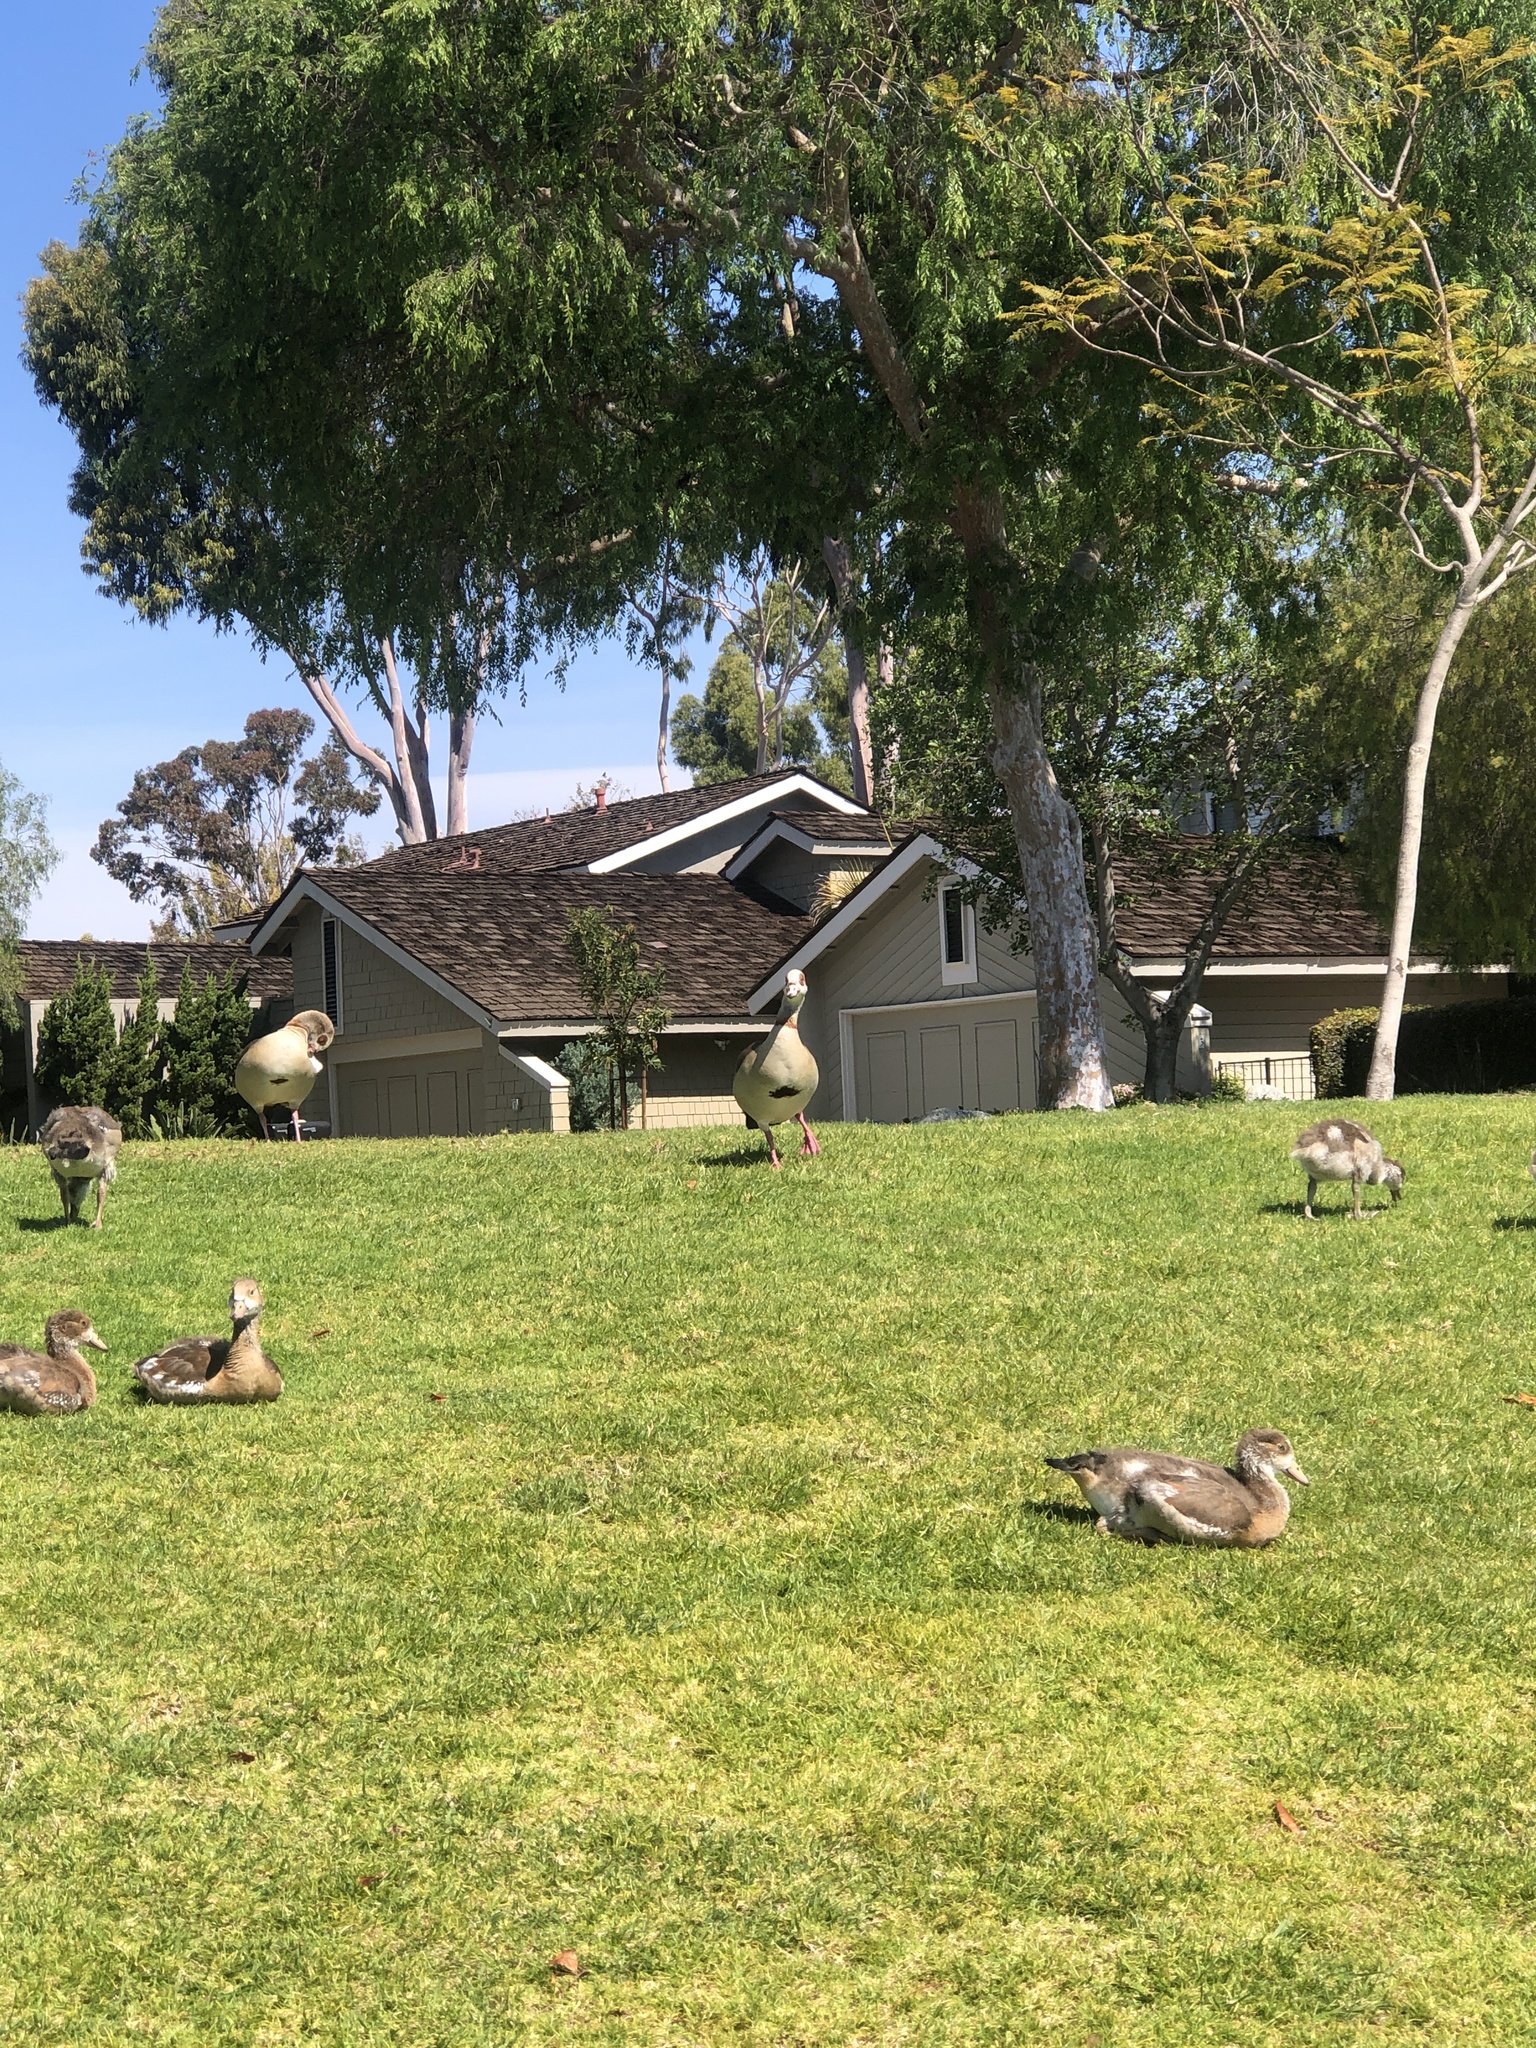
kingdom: Animalia
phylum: Chordata
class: Aves
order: Anseriformes
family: Anatidae
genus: Alopochen
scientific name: Alopochen aegyptiaca
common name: Egyptian goose
